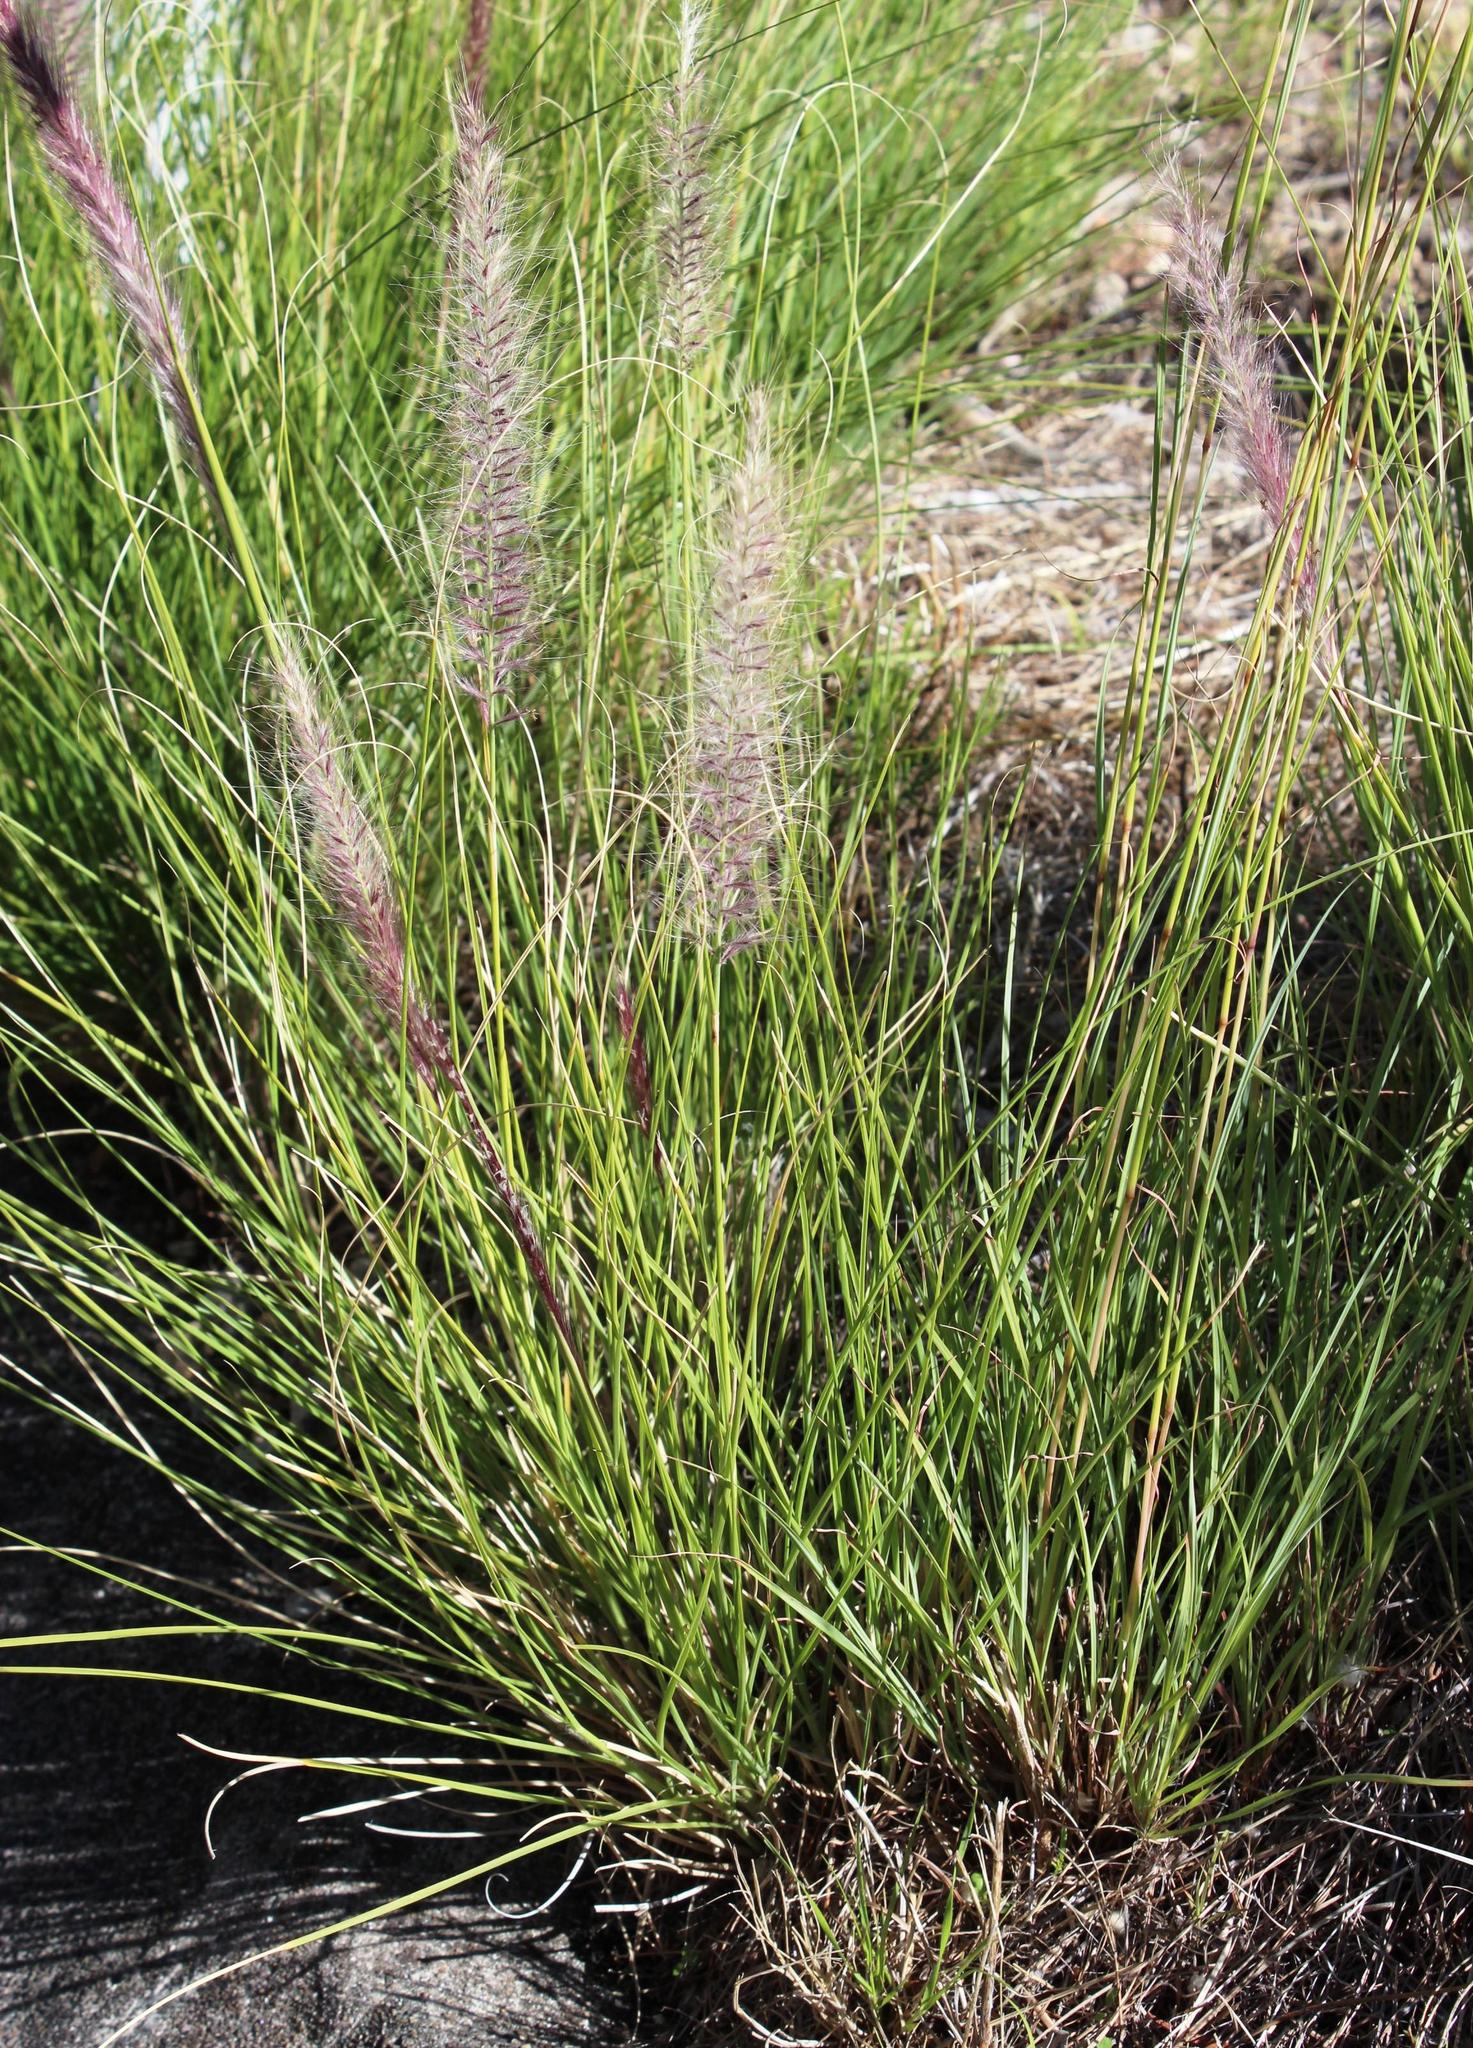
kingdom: Plantae
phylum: Tracheophyta
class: Liliopsida
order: Poales
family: Poaceae
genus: Cenchrus
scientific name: Cenchrus setaceus
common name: Crimson fountaingrass
